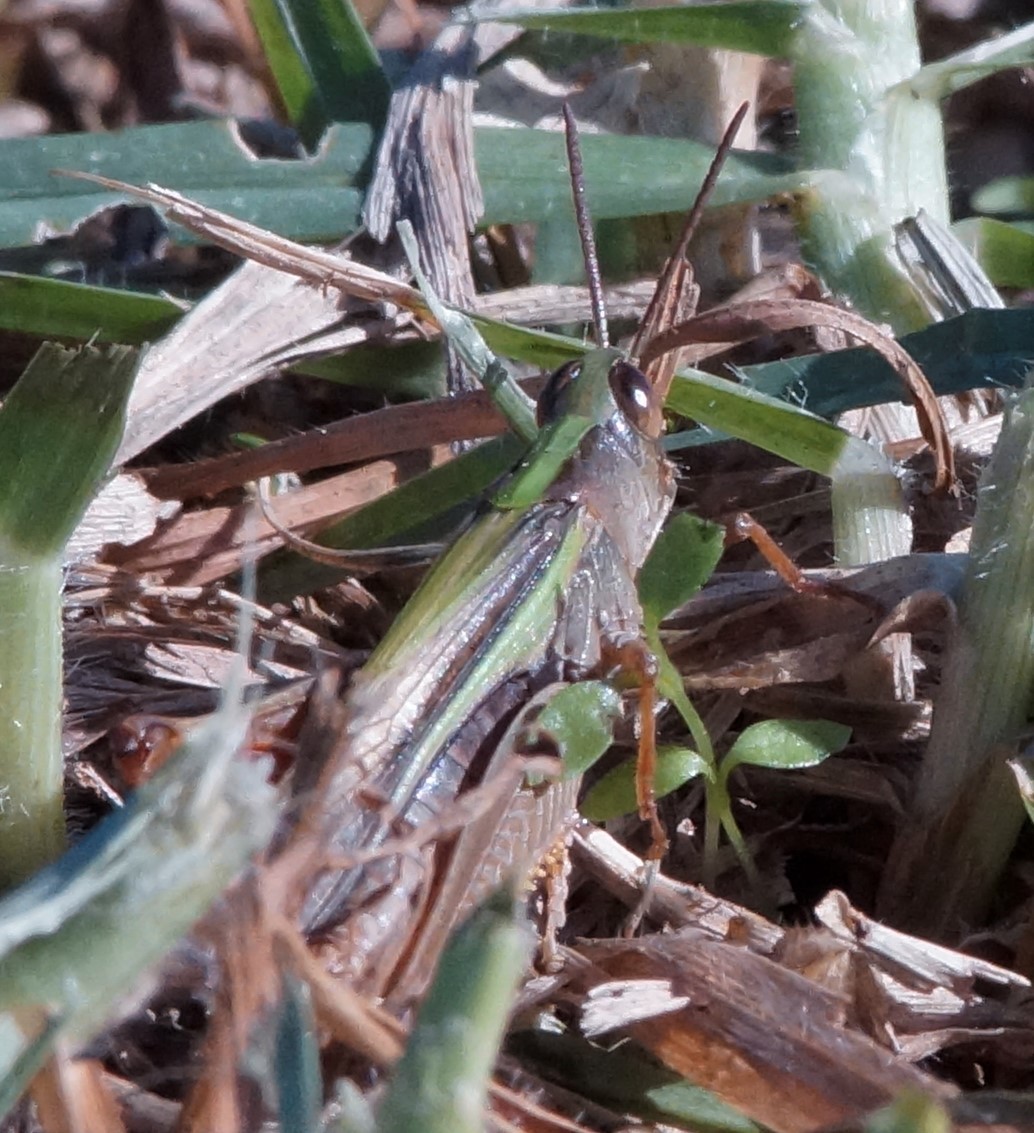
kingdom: Animalia
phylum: Arthropoda
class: Insecta
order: Orthoptera
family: Acrididae
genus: Schizobothrus
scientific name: Schizobothrus flavovittatus
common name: Disappearing grasshopper
